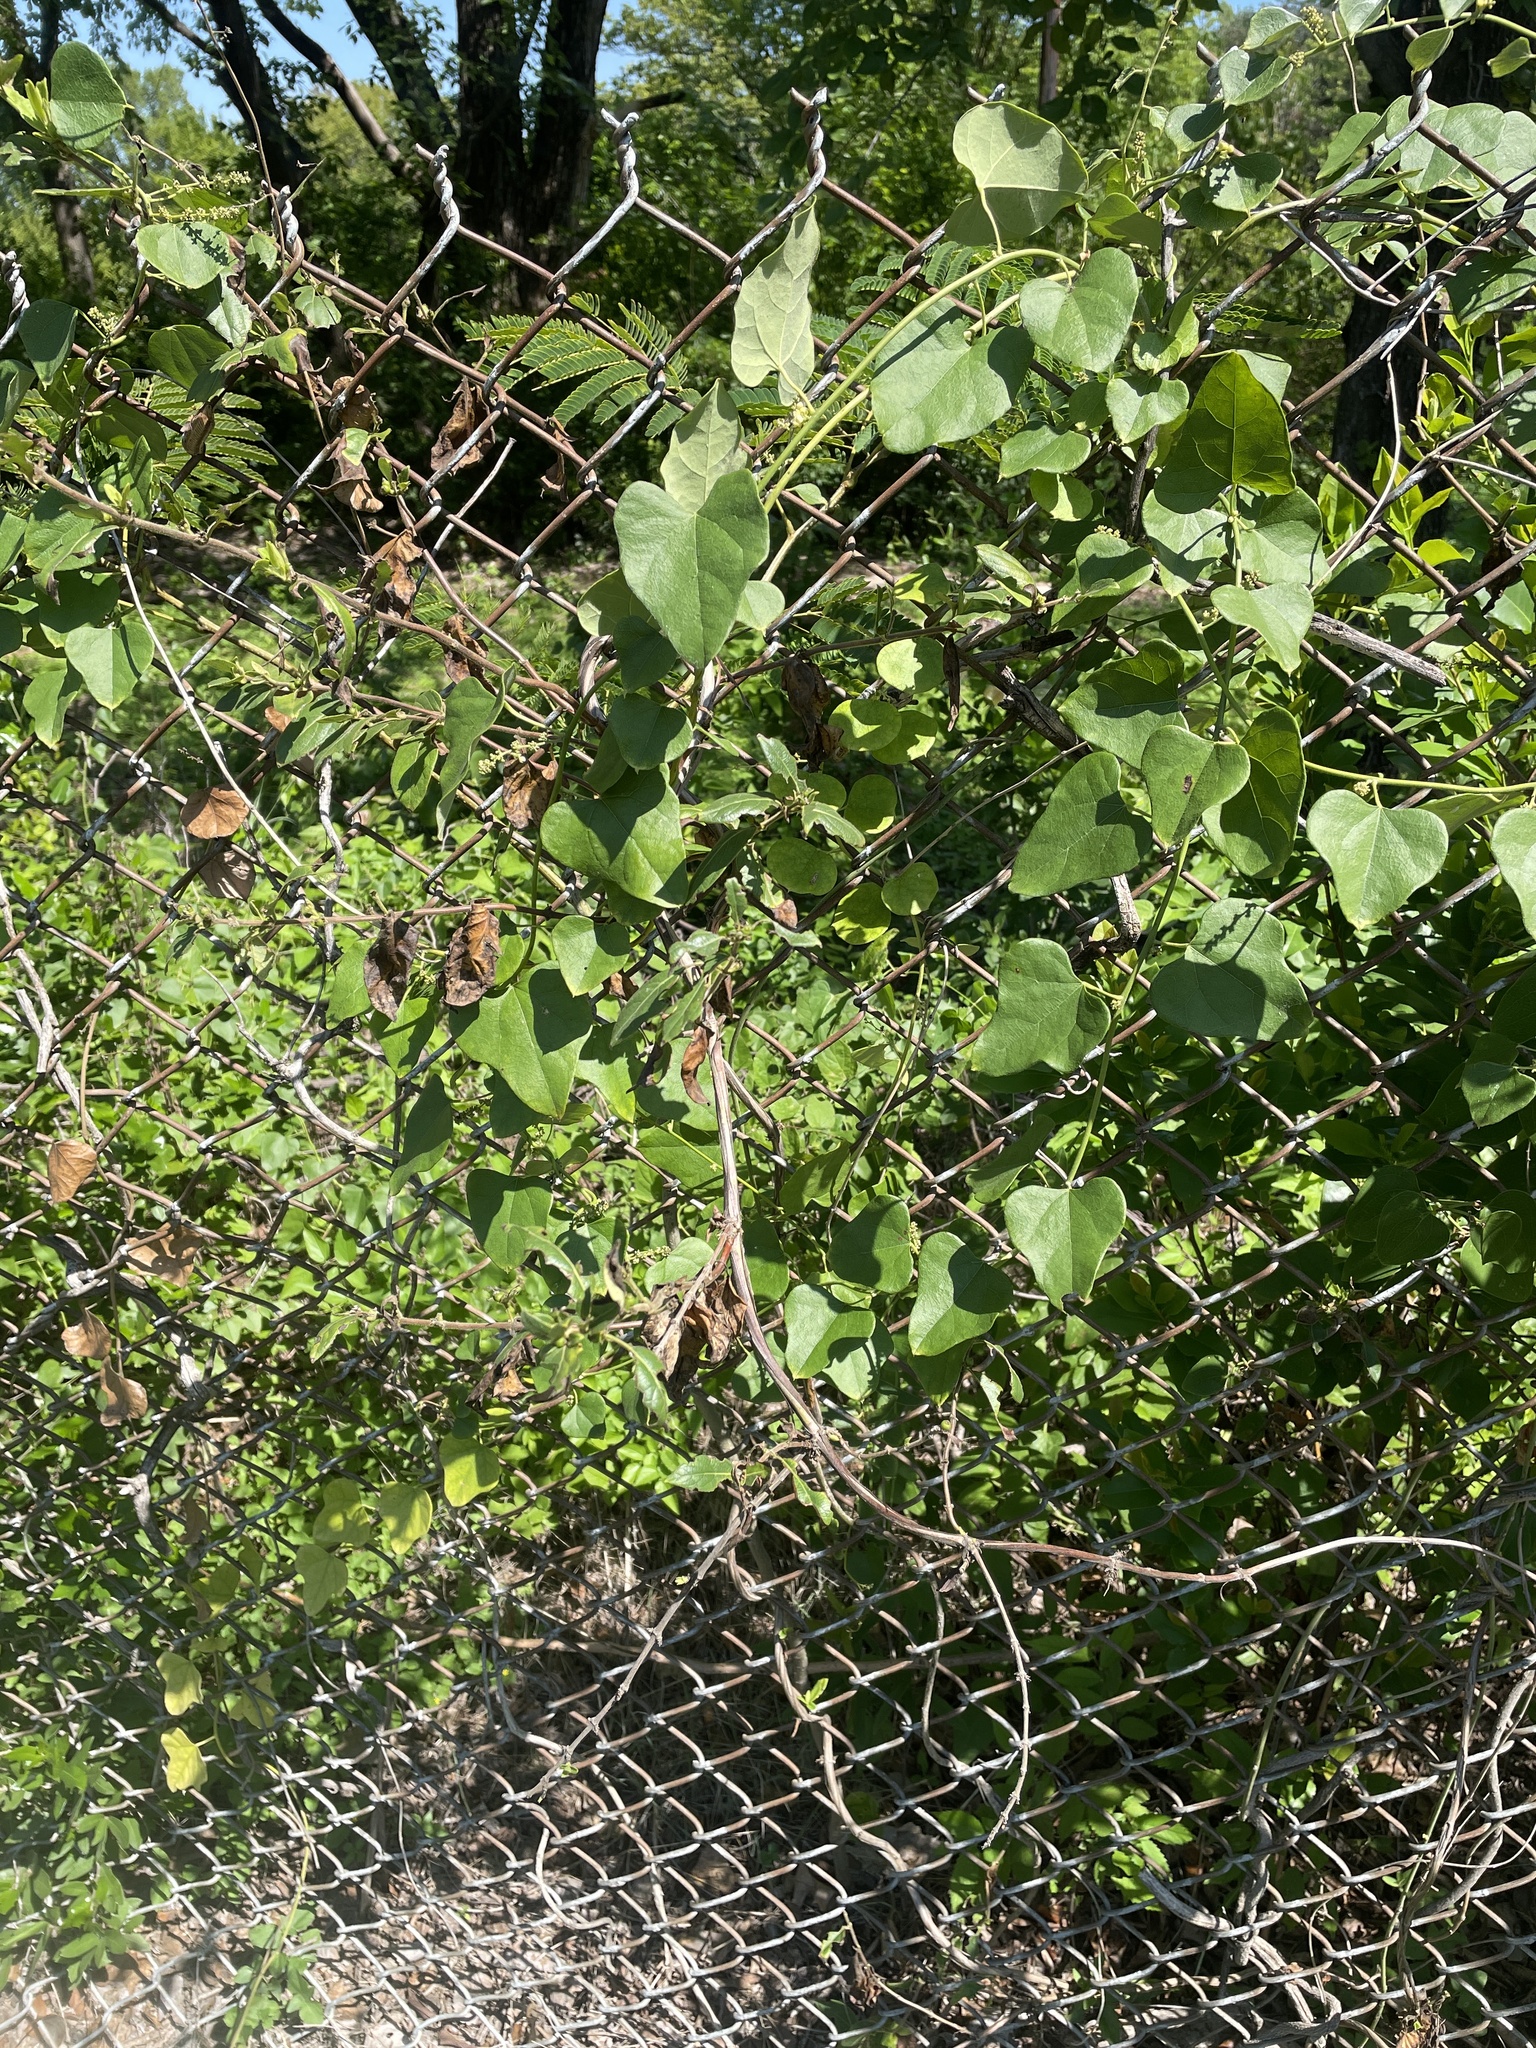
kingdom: Plantae
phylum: Tracheophyta
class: Magnoliopsida
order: Dipsacales
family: Caprifoliaceae
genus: Lonicera
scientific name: Lonicera japonica
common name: Japanese honeysuckle
